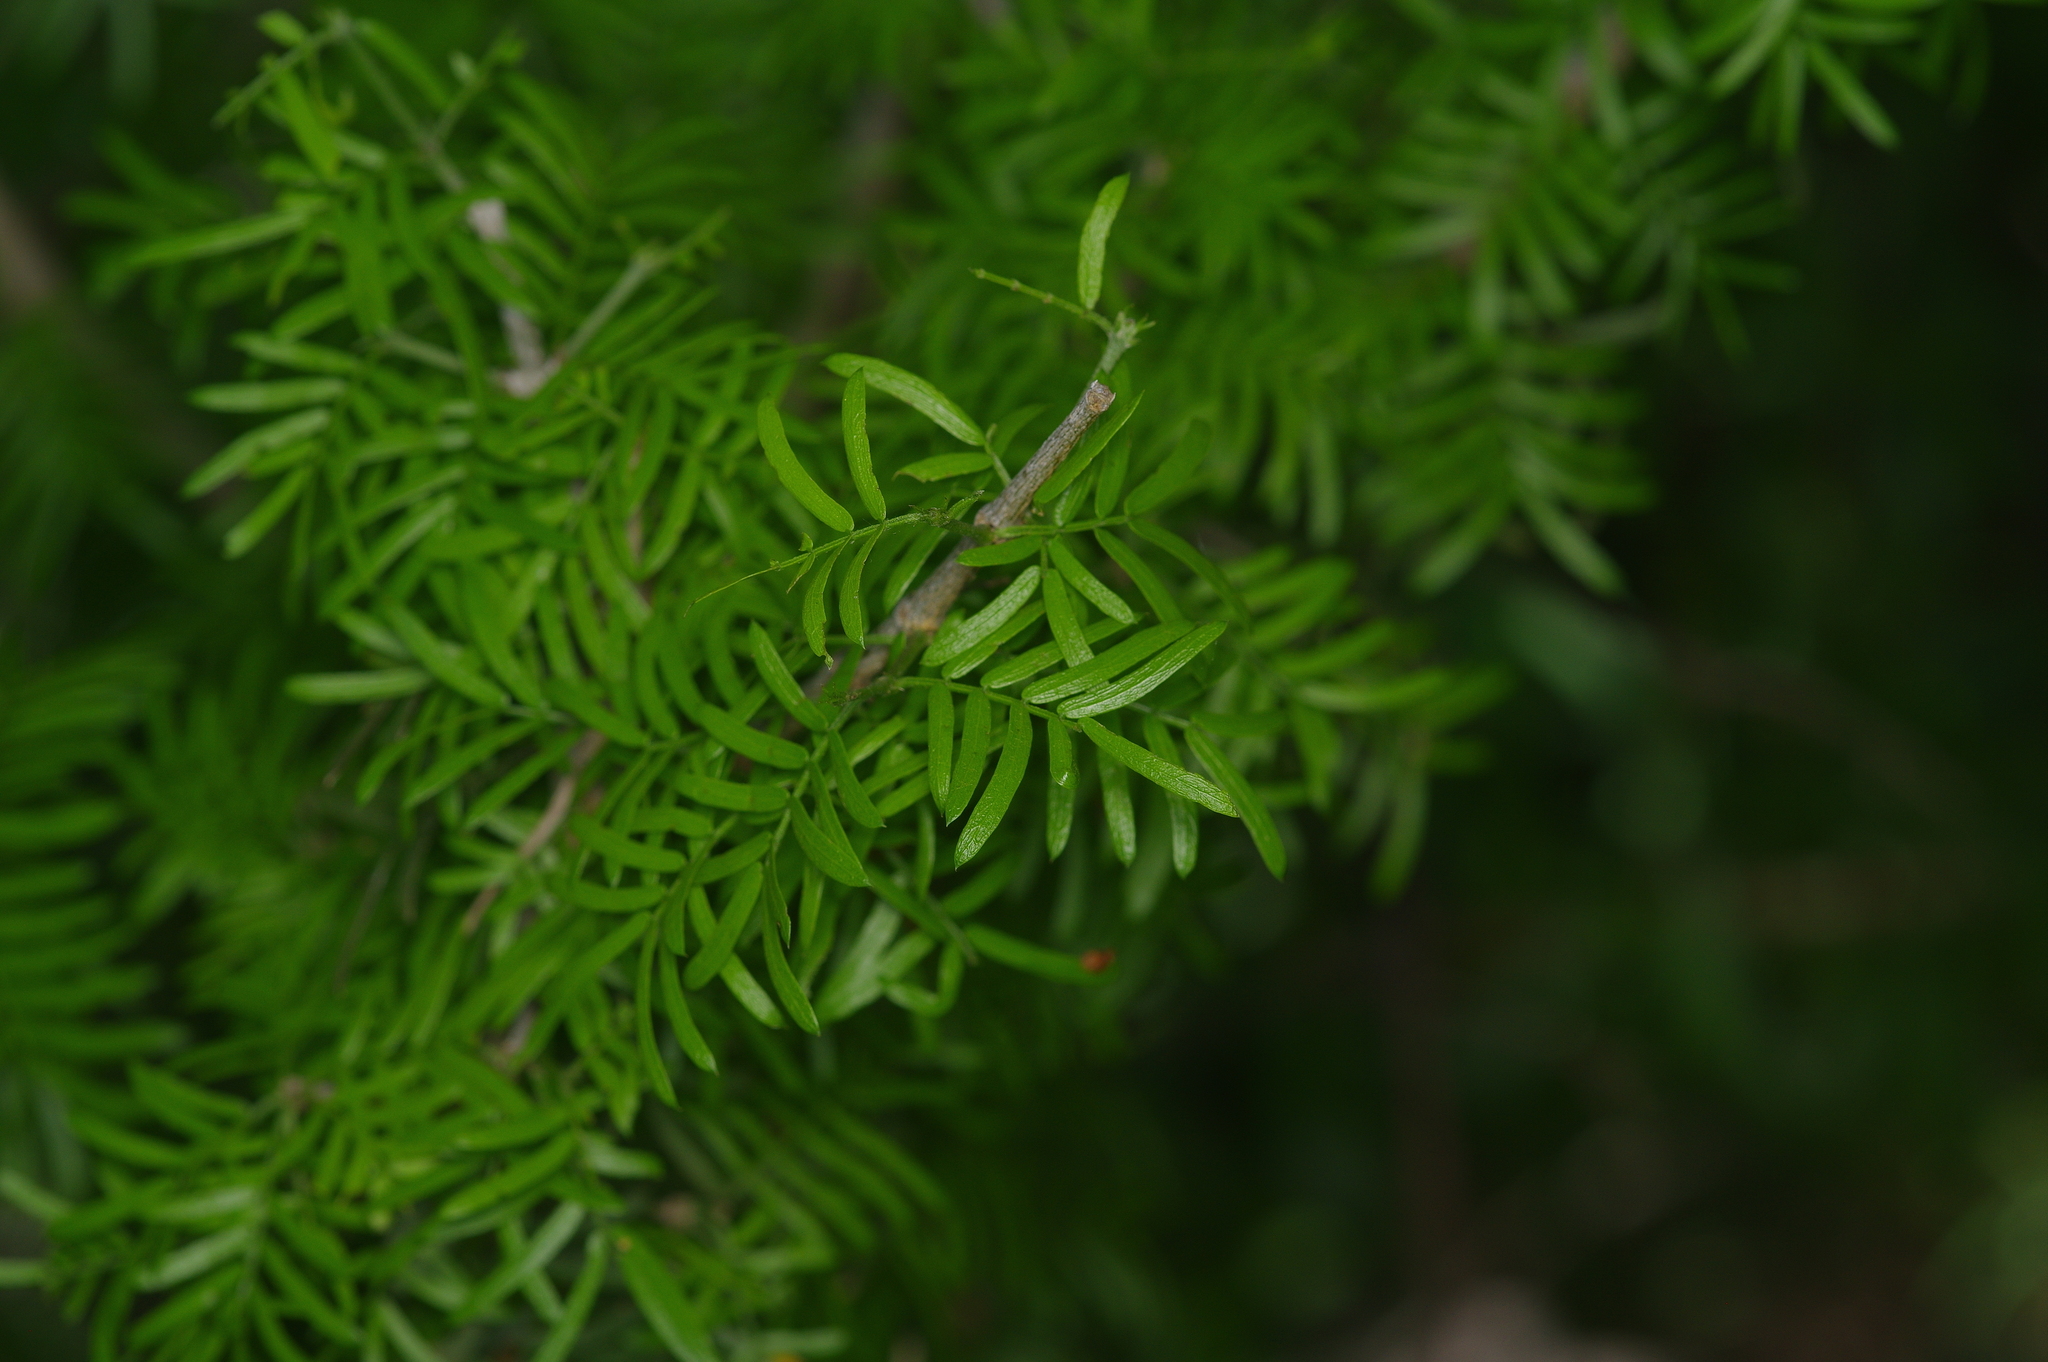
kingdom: Plantae
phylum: Tracheophyta
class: Magnoliopsida
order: Zygophyllales
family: Zygophyllaceae
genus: Porlieria
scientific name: Porlieria angustifolia
